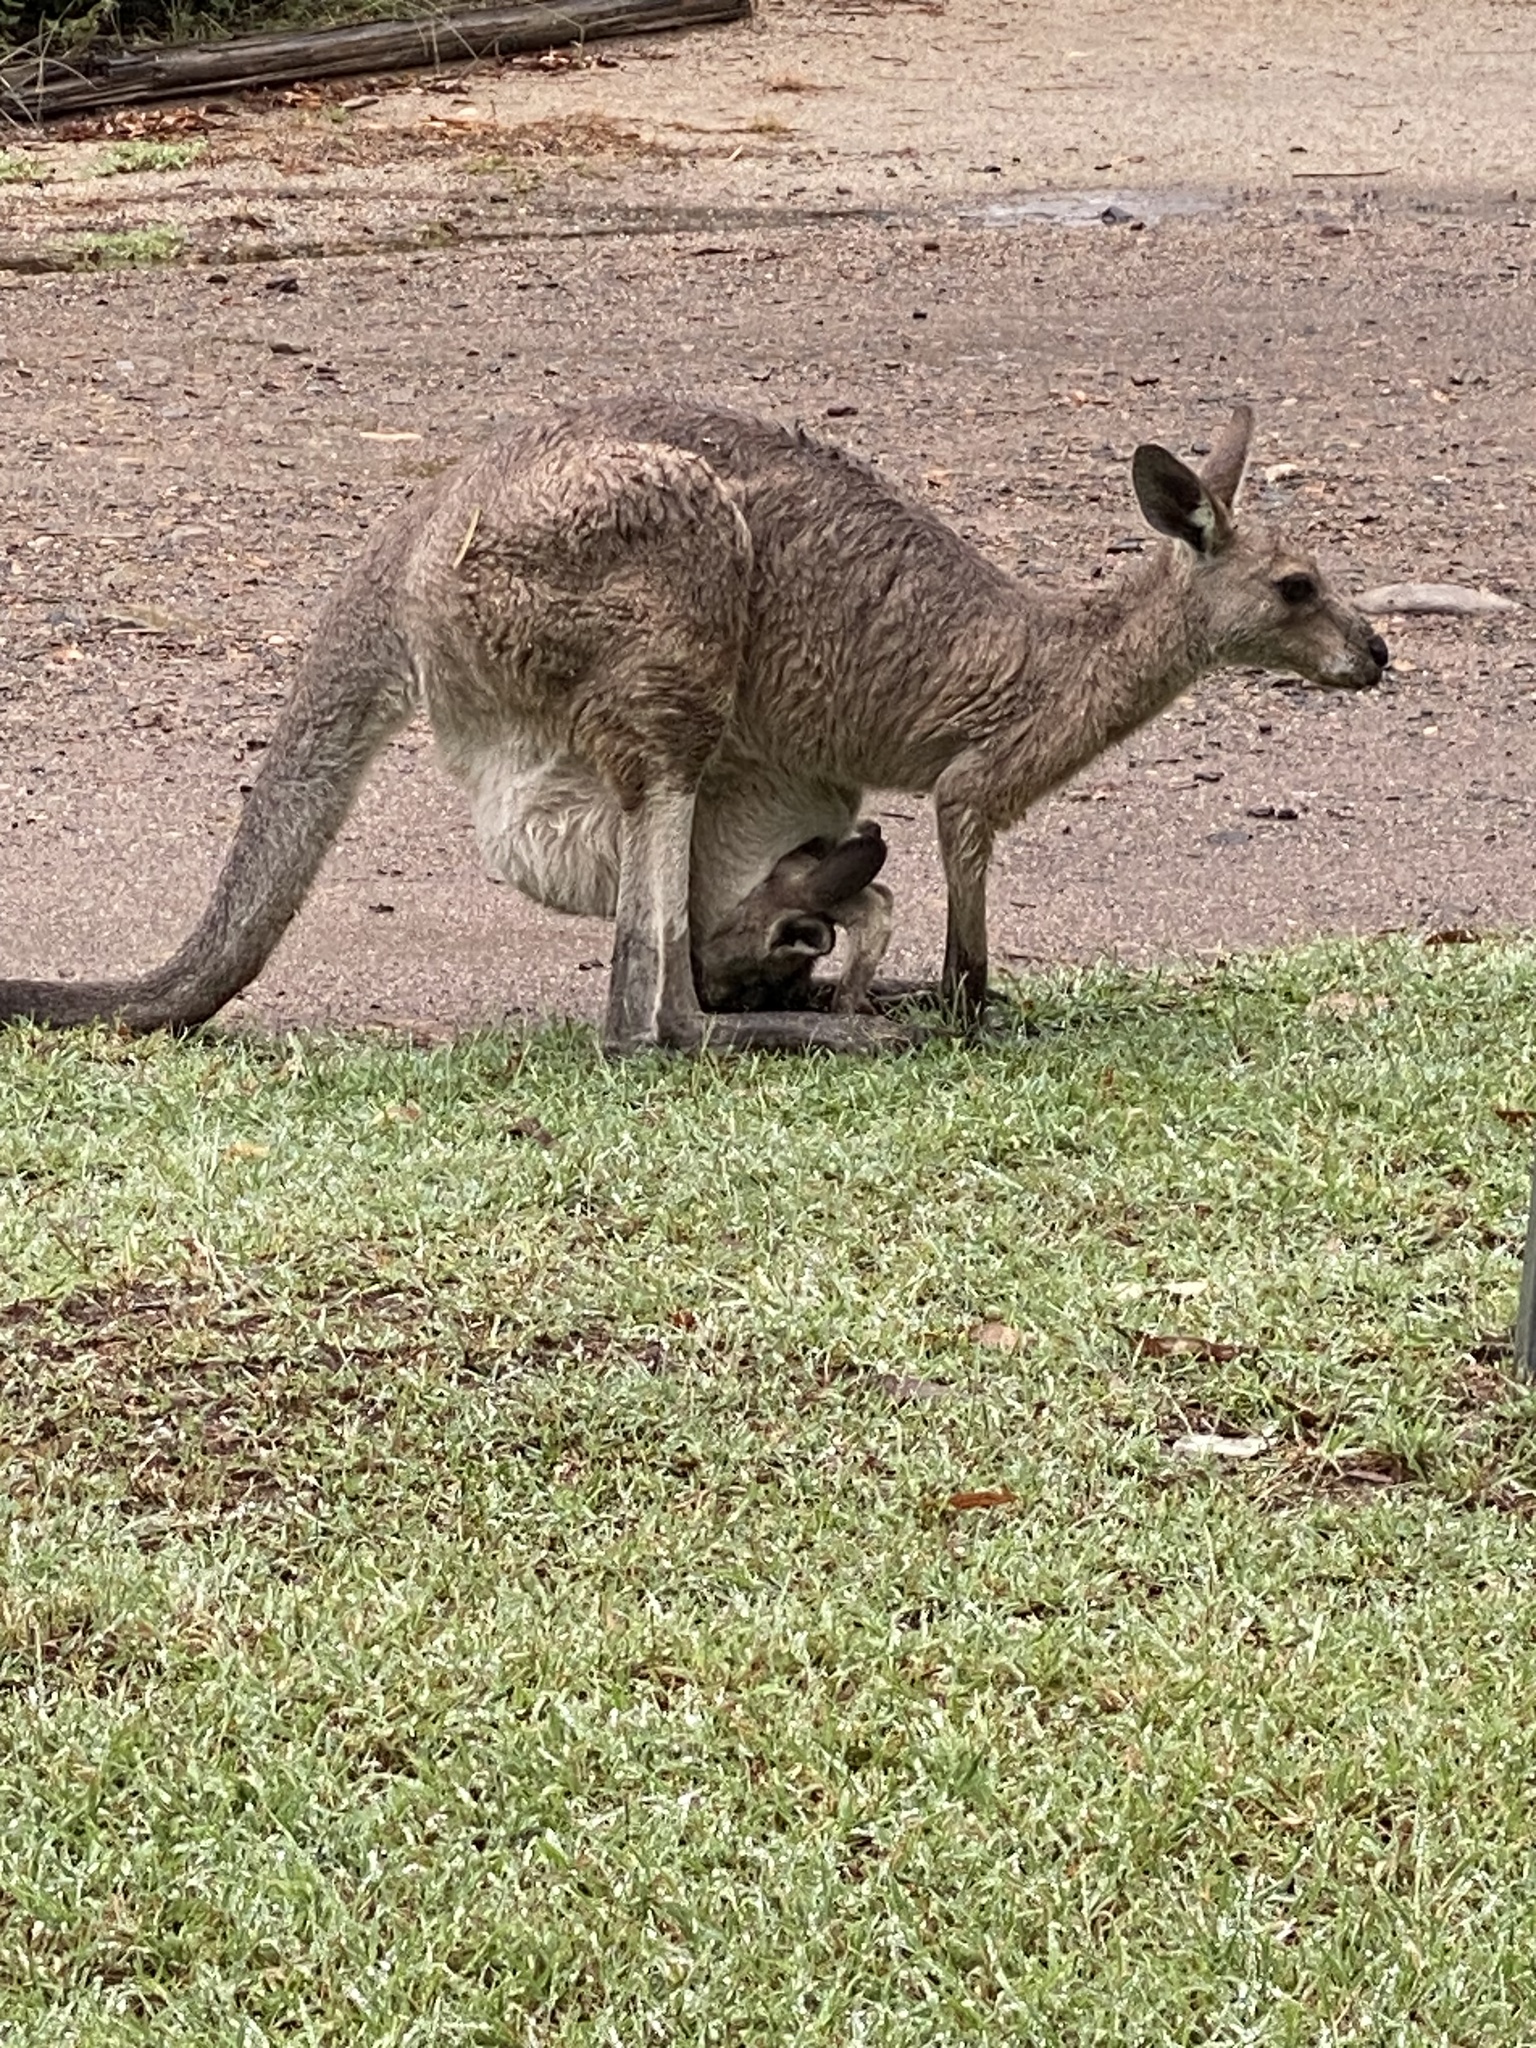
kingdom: Animalia
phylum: Chordata
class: Mammalia
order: Diprotodontia
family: Macropodidae
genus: Macropus
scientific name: Macropus giganteus
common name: Eastern grey kangaroo
